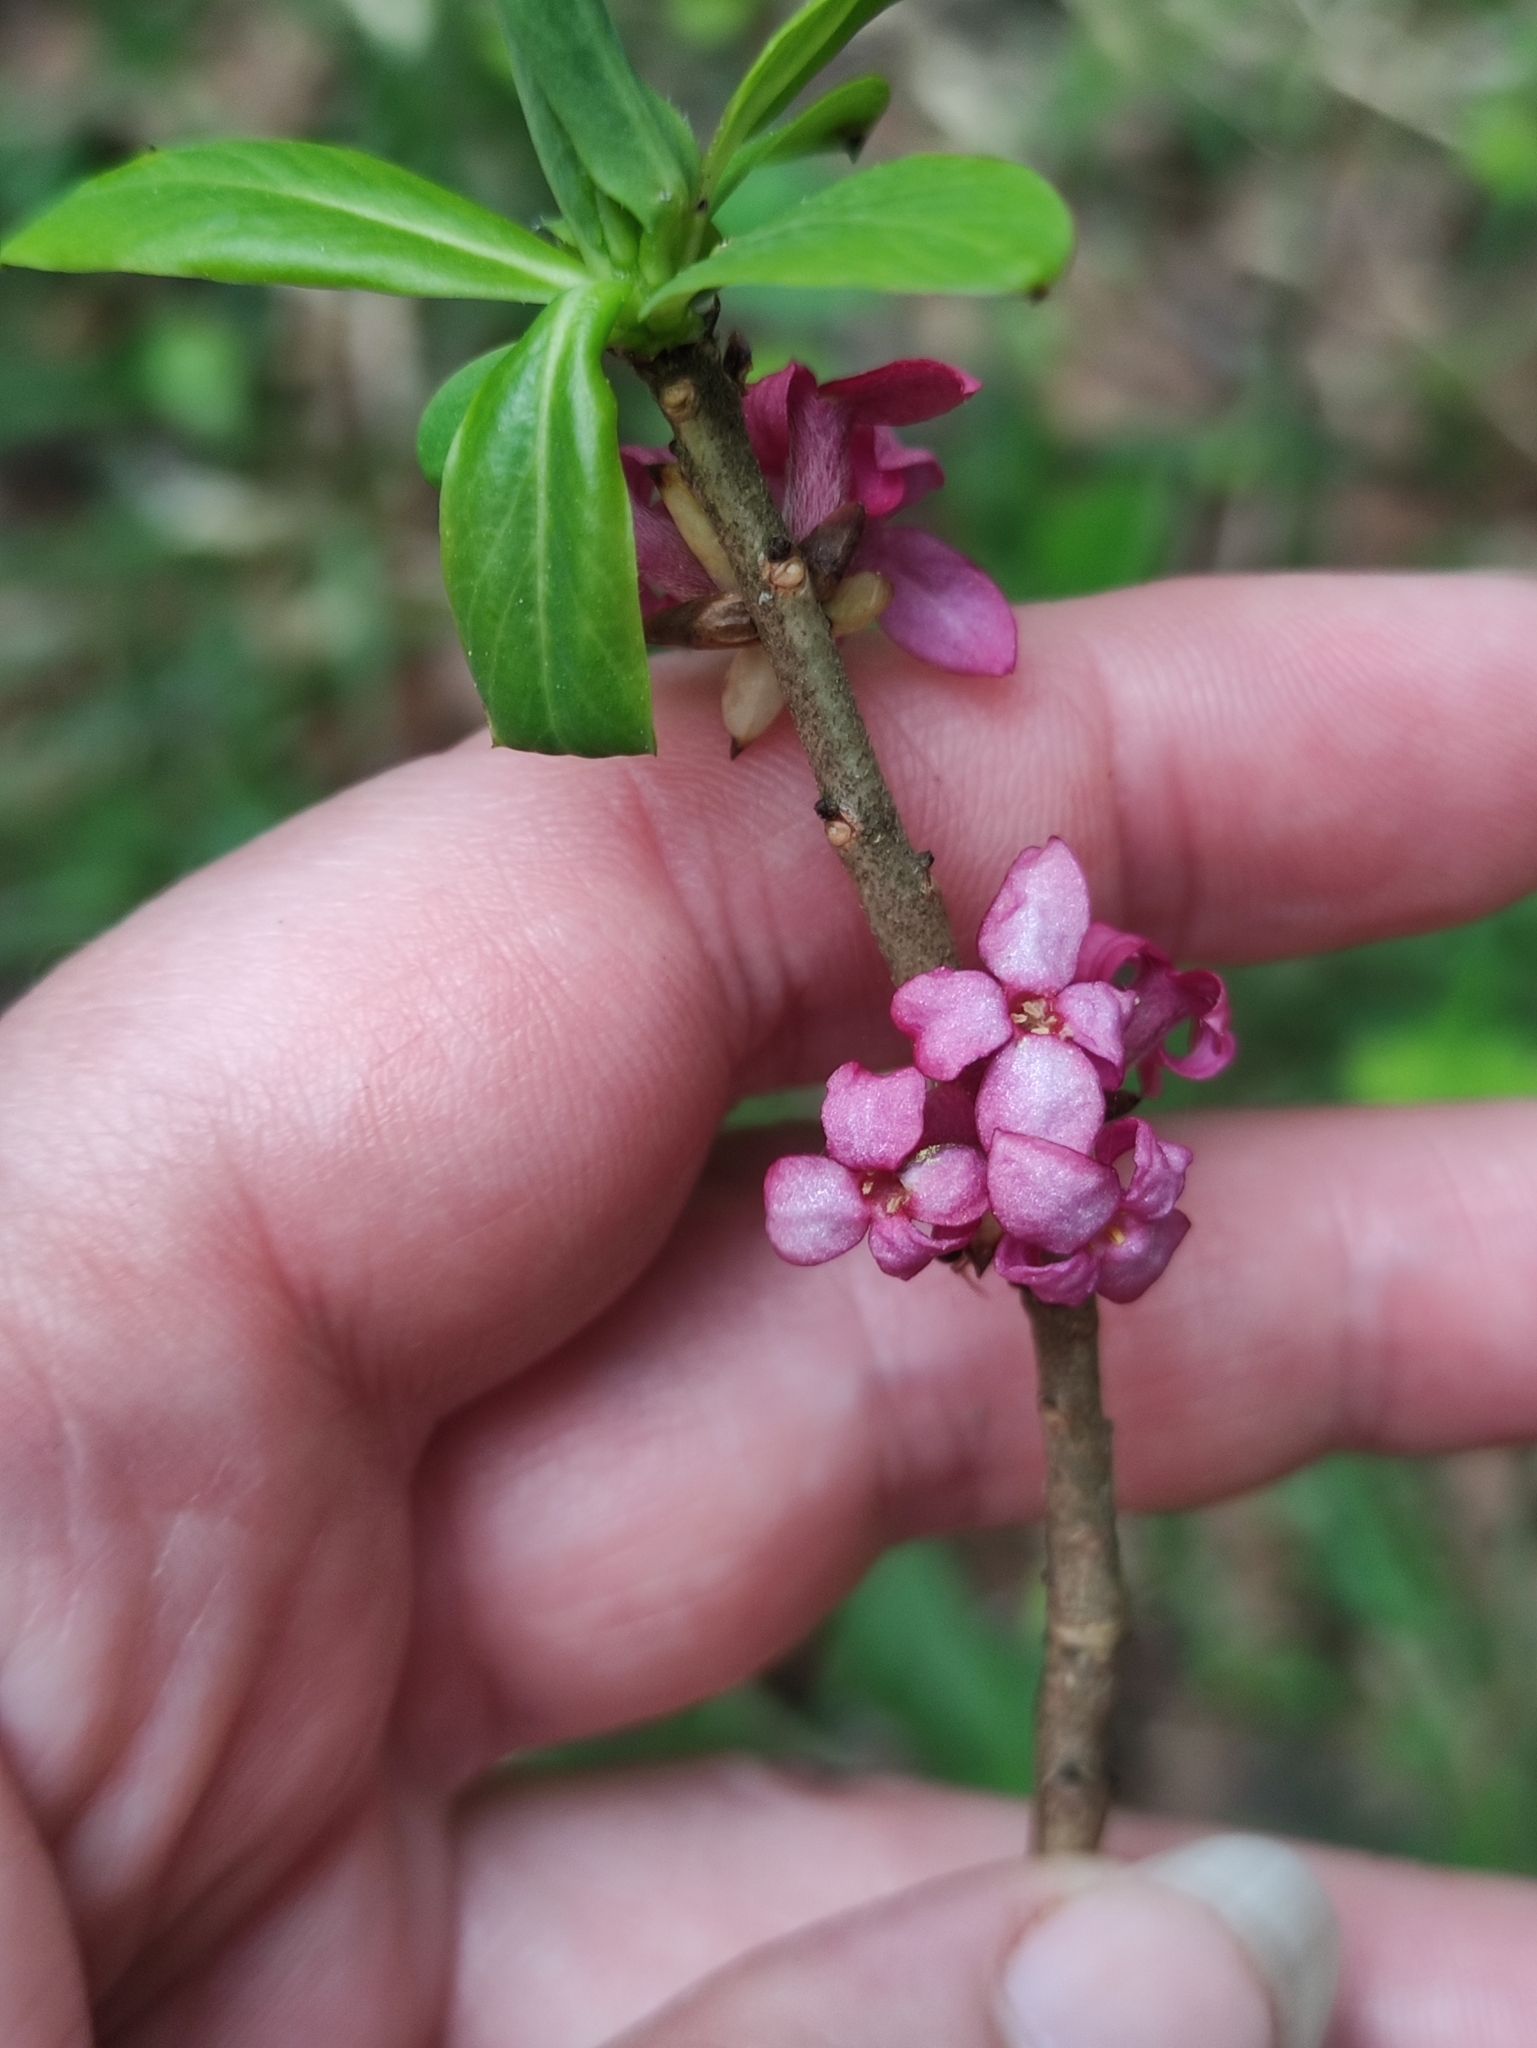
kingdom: Plantae
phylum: Tracheophyta
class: Magnoliopsida
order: Malvales
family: Thymelaeaceae
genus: Daphne
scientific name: Daphne mezereum
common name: Mezereon
